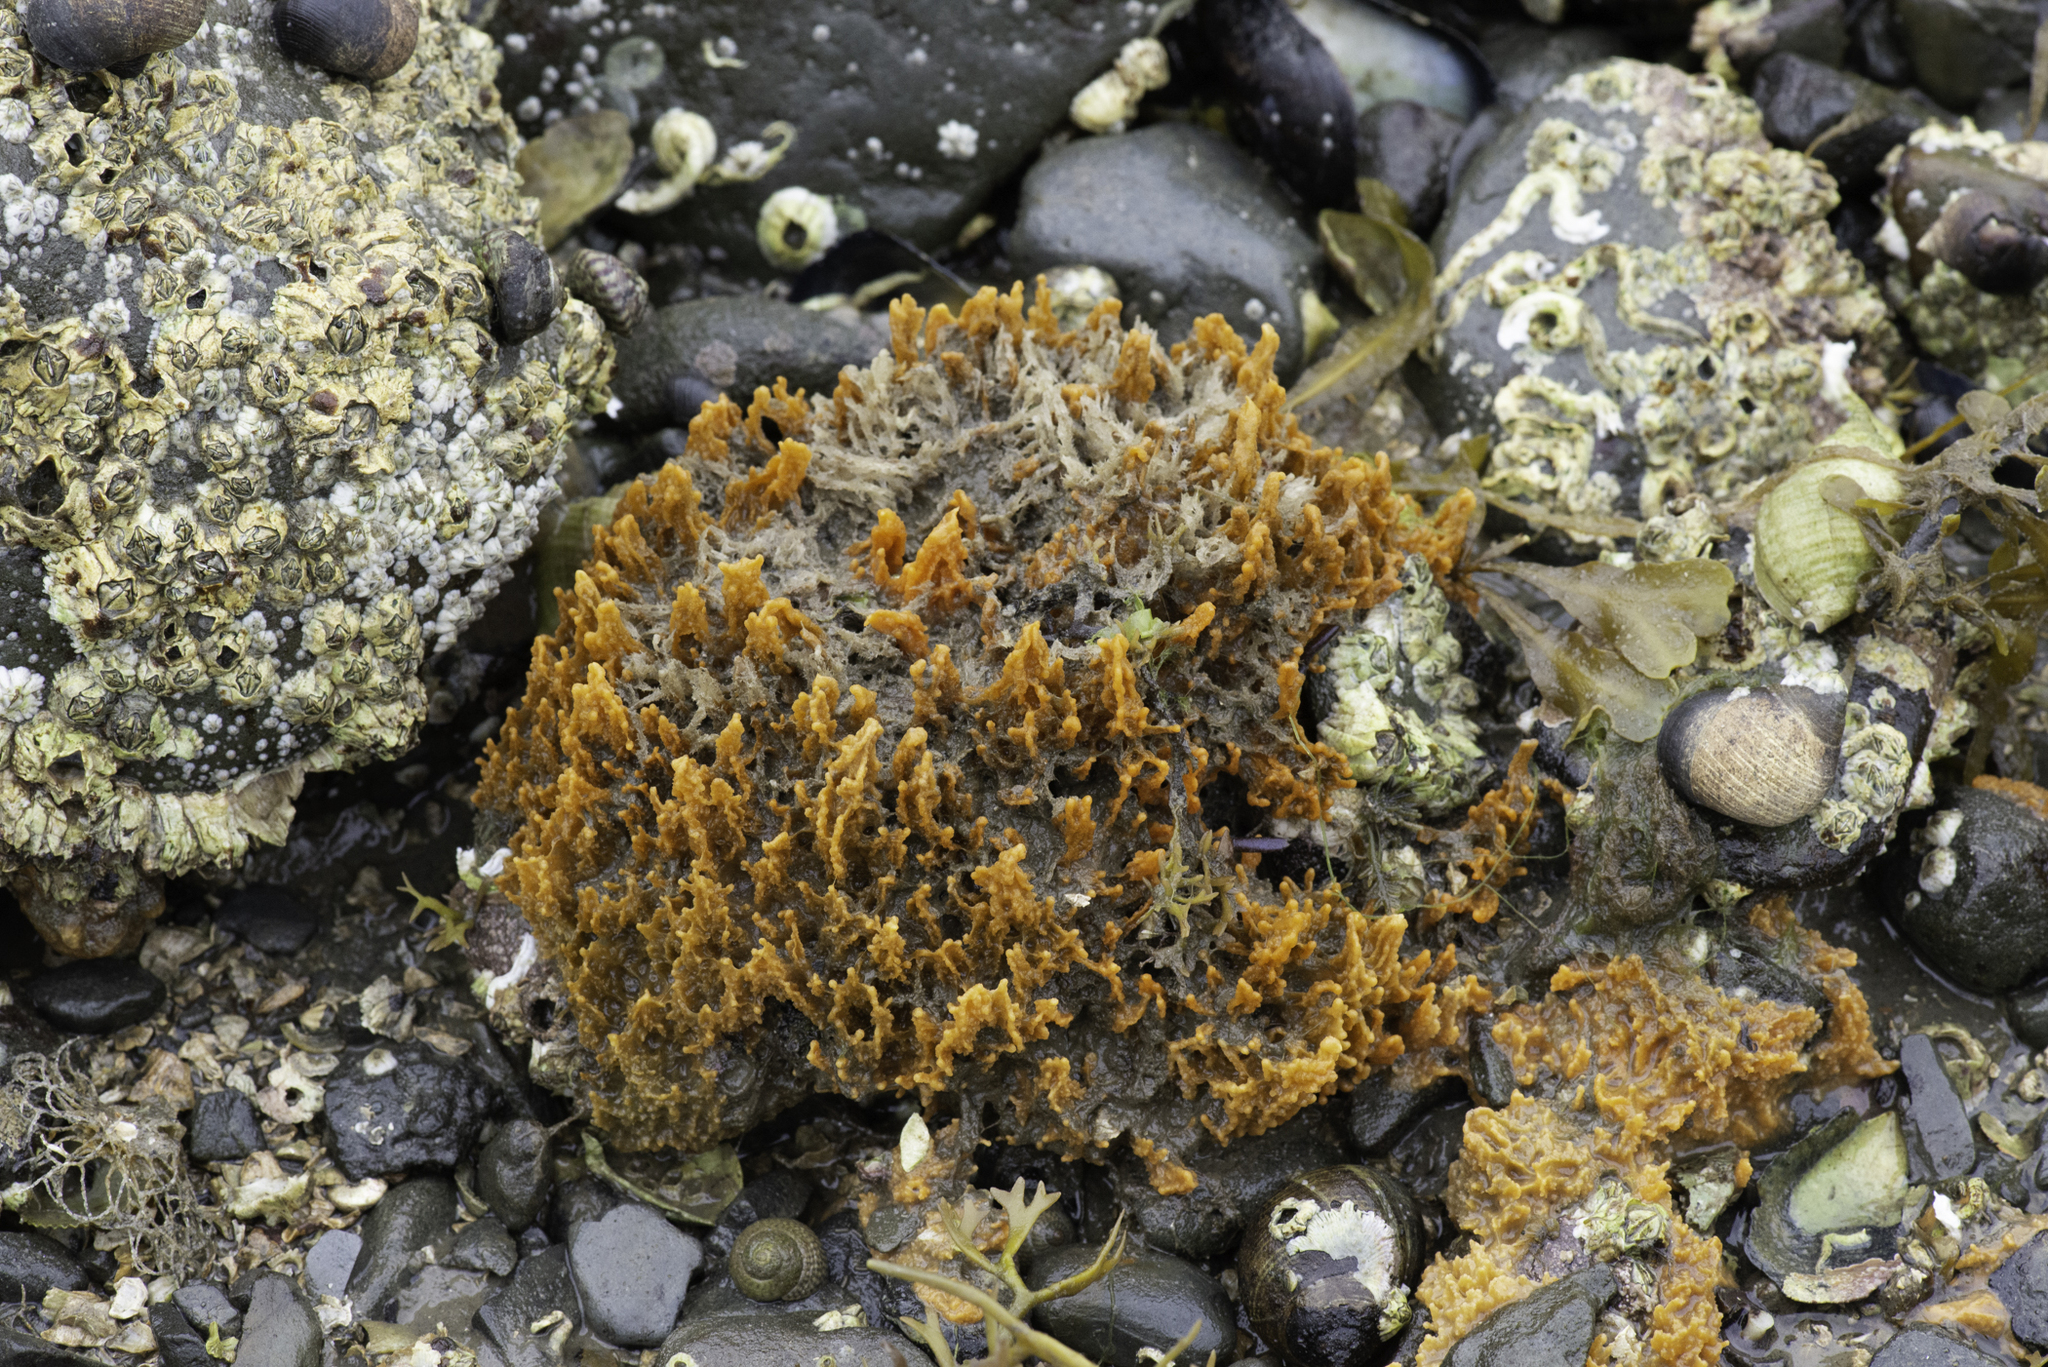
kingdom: Animalia
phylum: Porifera
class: Demospongiae
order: Suberitida
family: Halichondriidae
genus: Hymeniacidon
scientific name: Hymeniacidon perlevis
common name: Crumb-of-bread sponge
